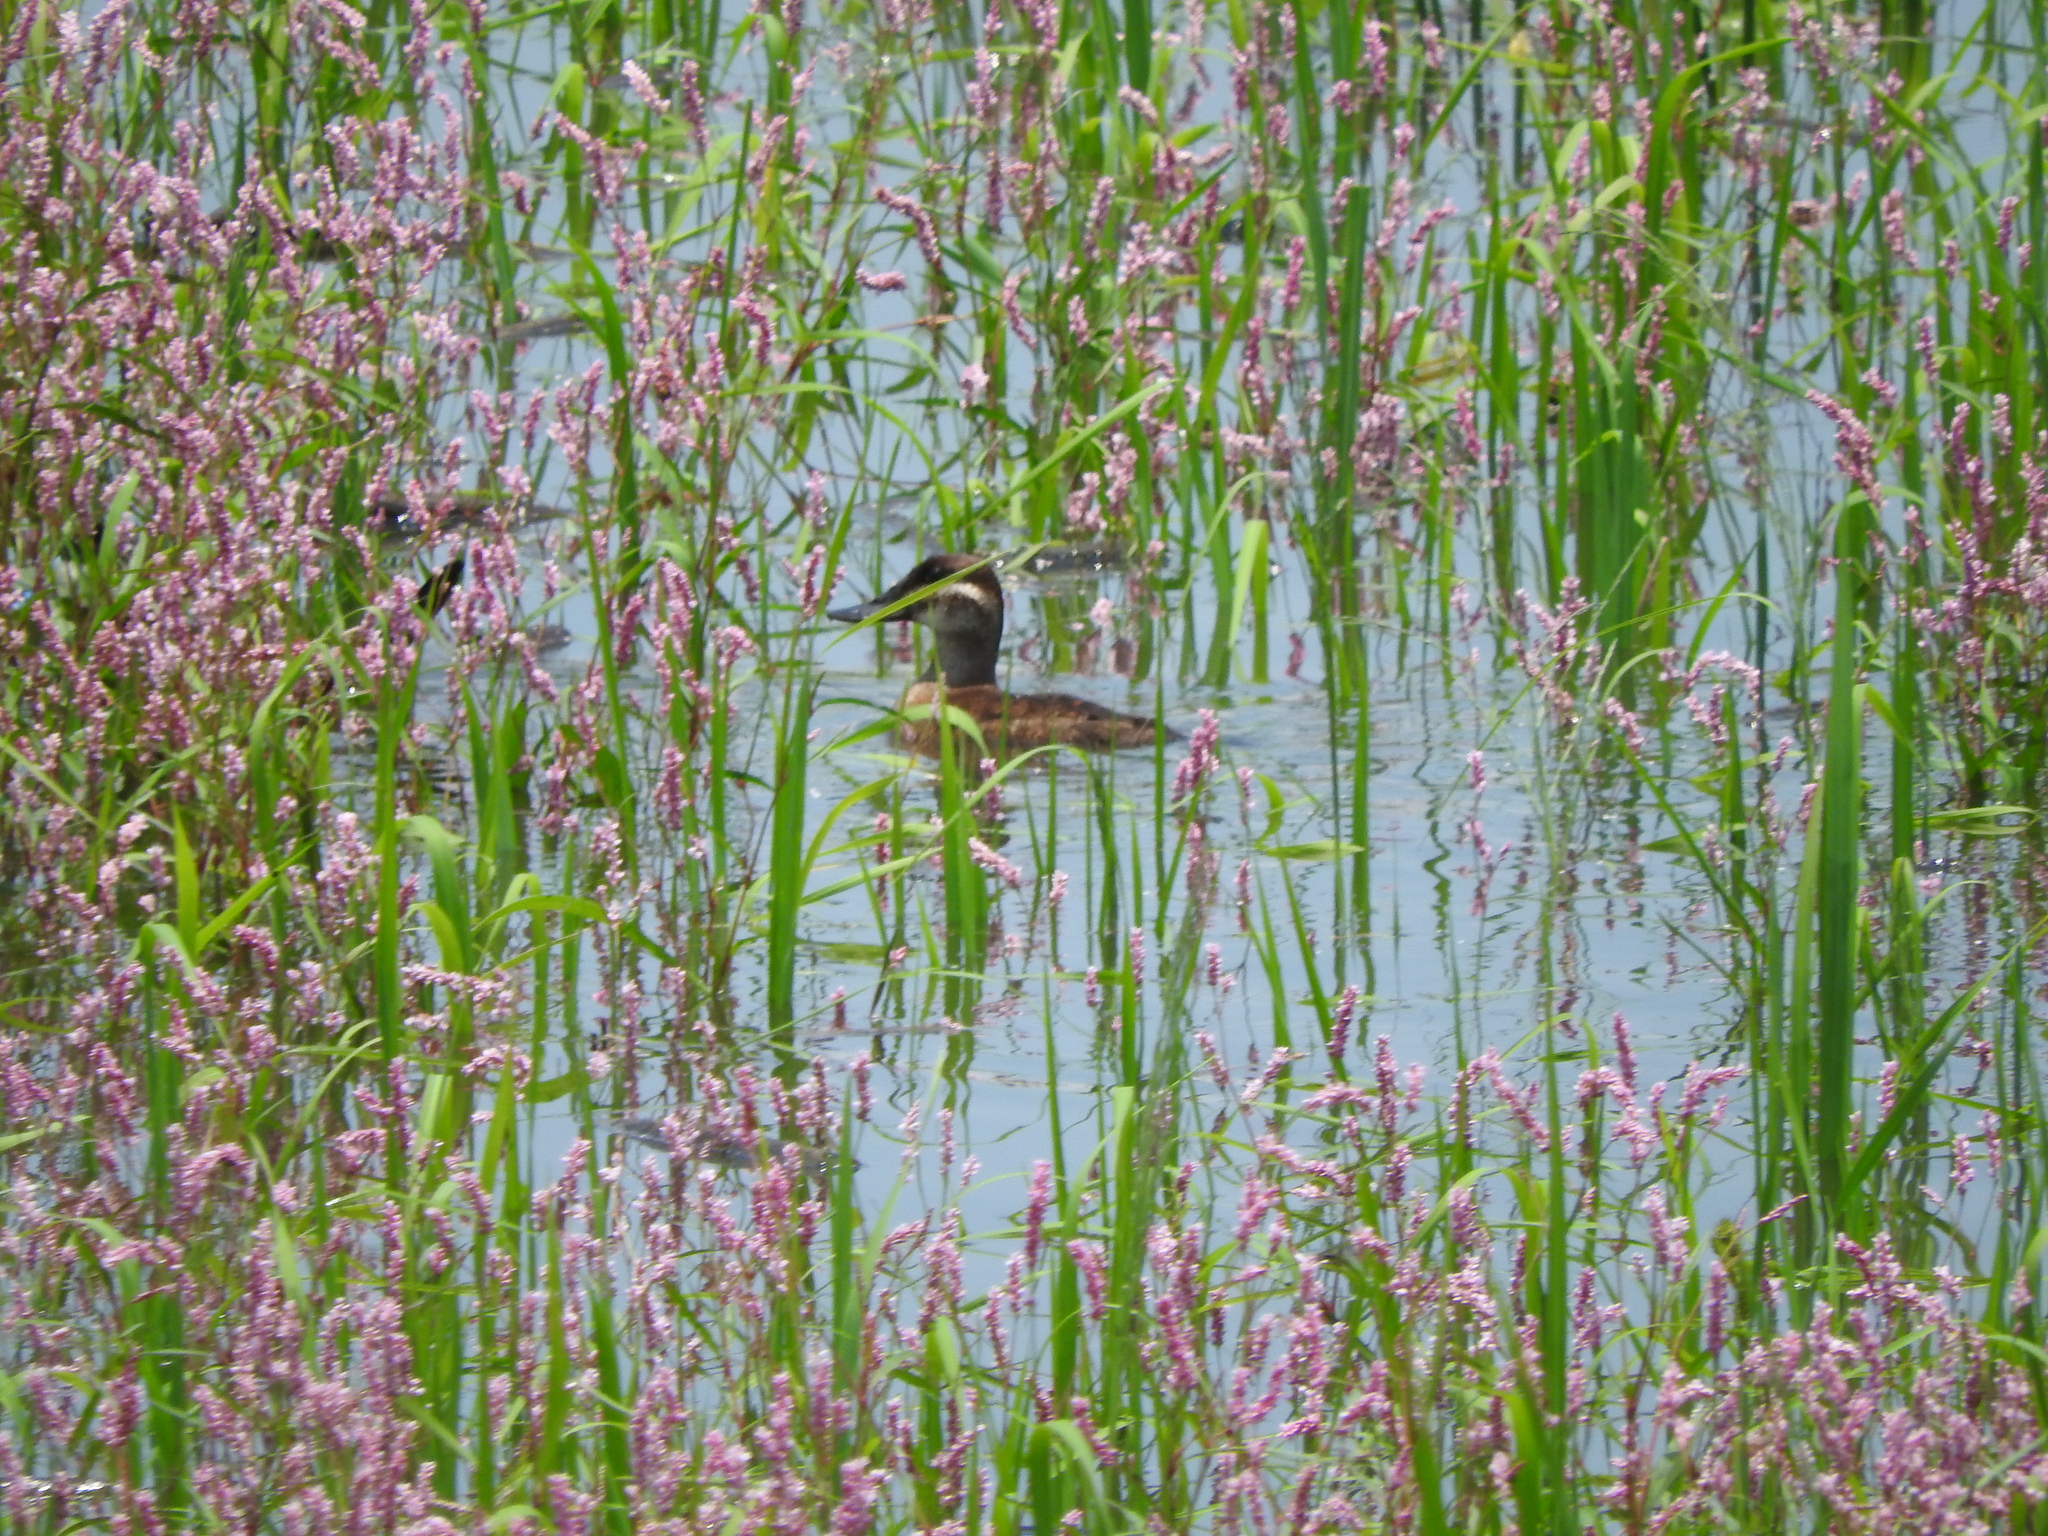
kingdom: Animalia
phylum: Chordata
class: Aves
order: Anseriformes
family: Anatidae
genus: Oxyura
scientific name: Oxyura jamaicensis
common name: Ruddy duck
